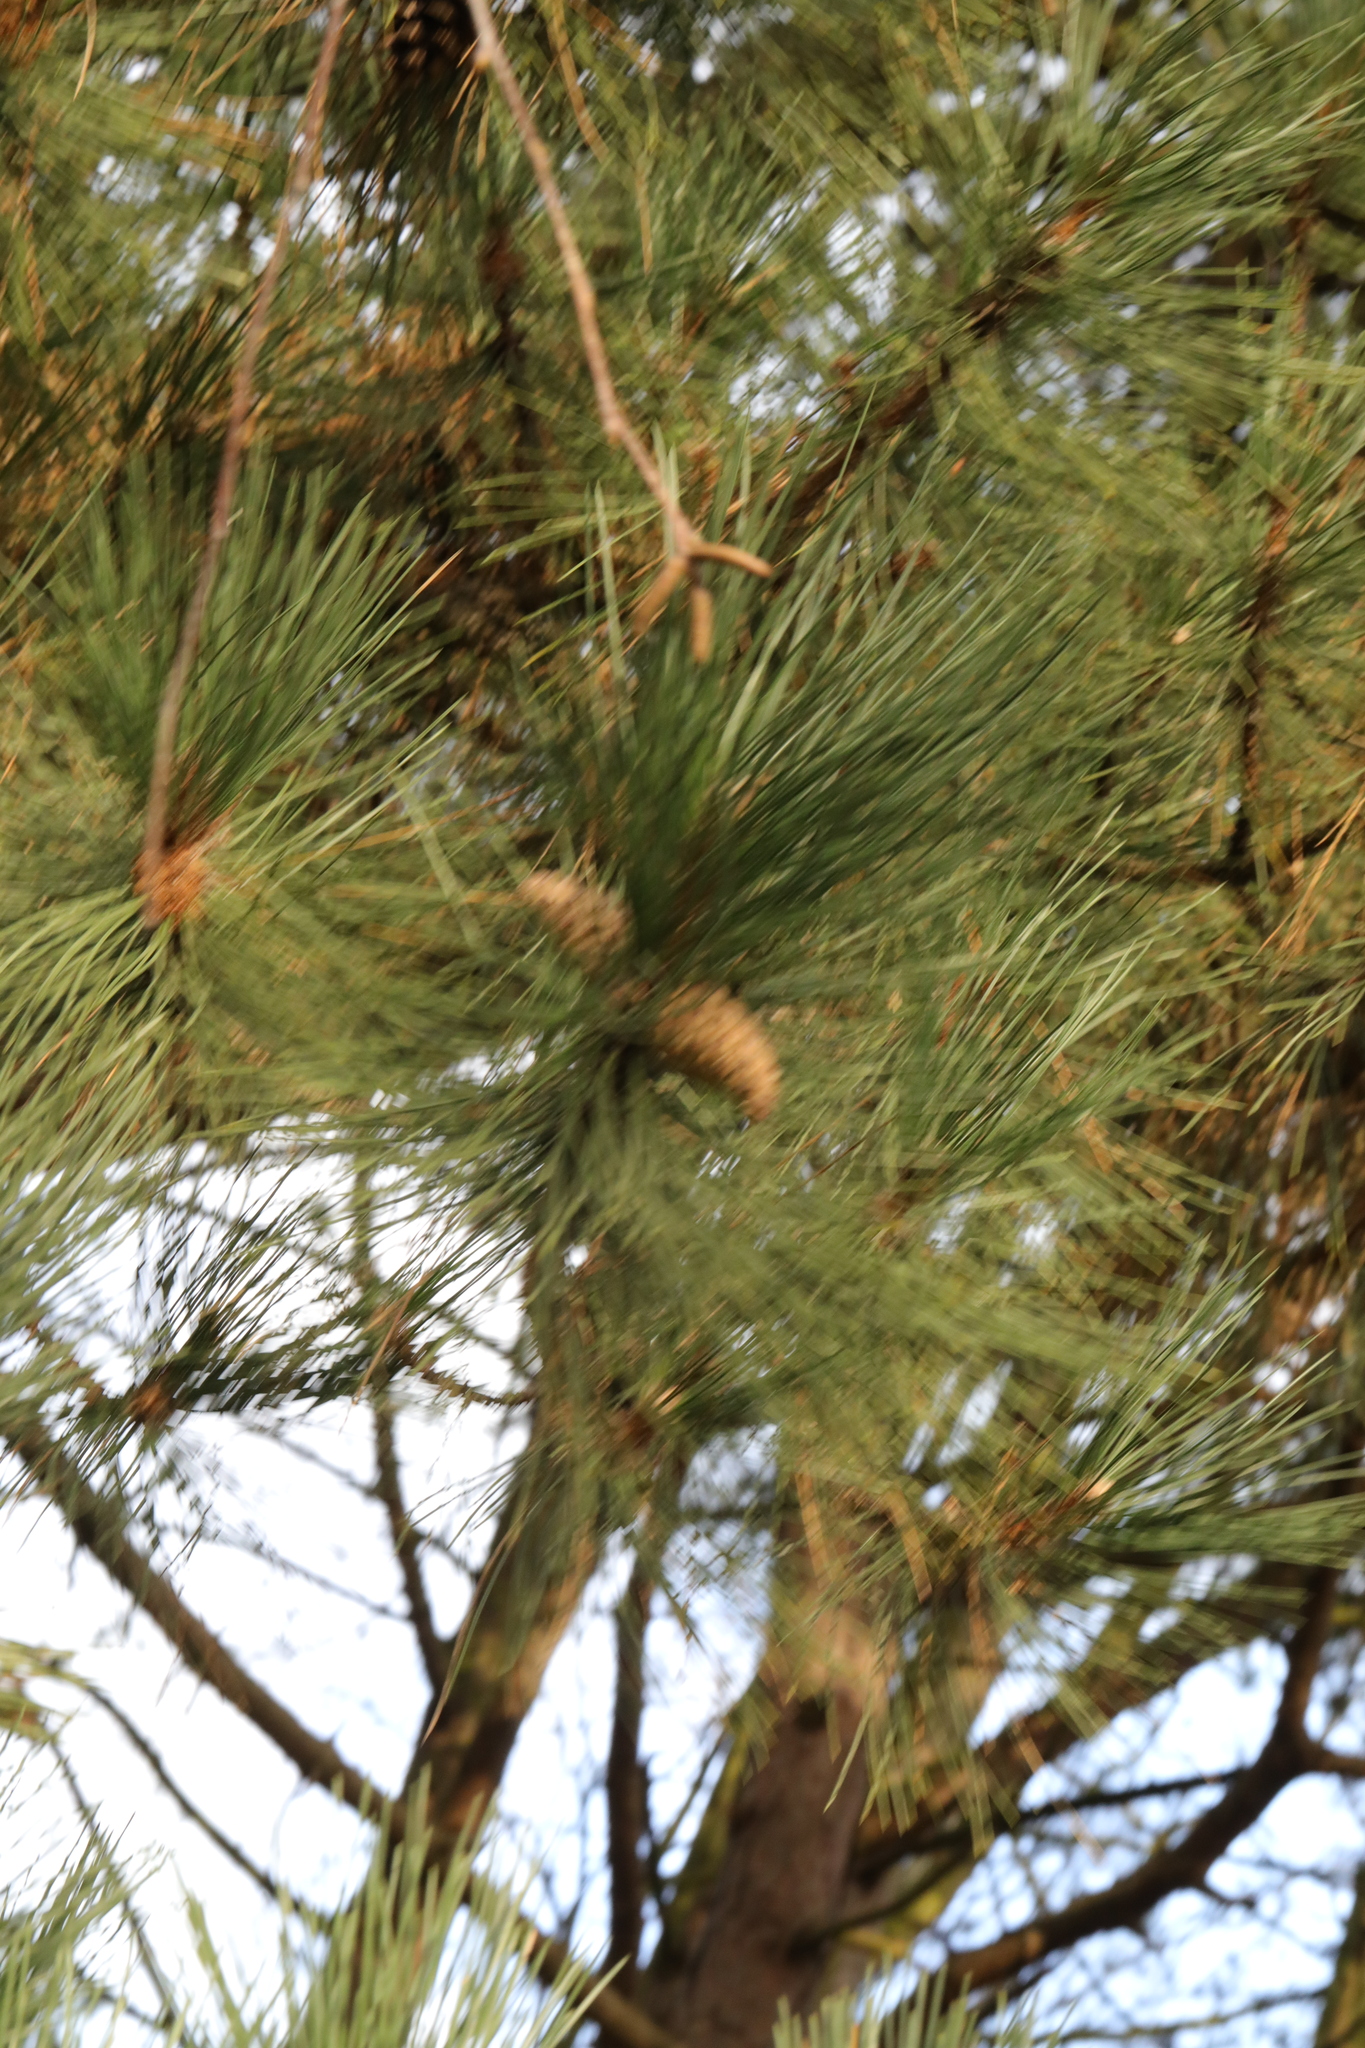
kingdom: Plantae
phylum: Tracheophyta
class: Pinopsida
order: Pinales
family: Pinaceae
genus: Pinus
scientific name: Pinus nigra
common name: Austrian pine
